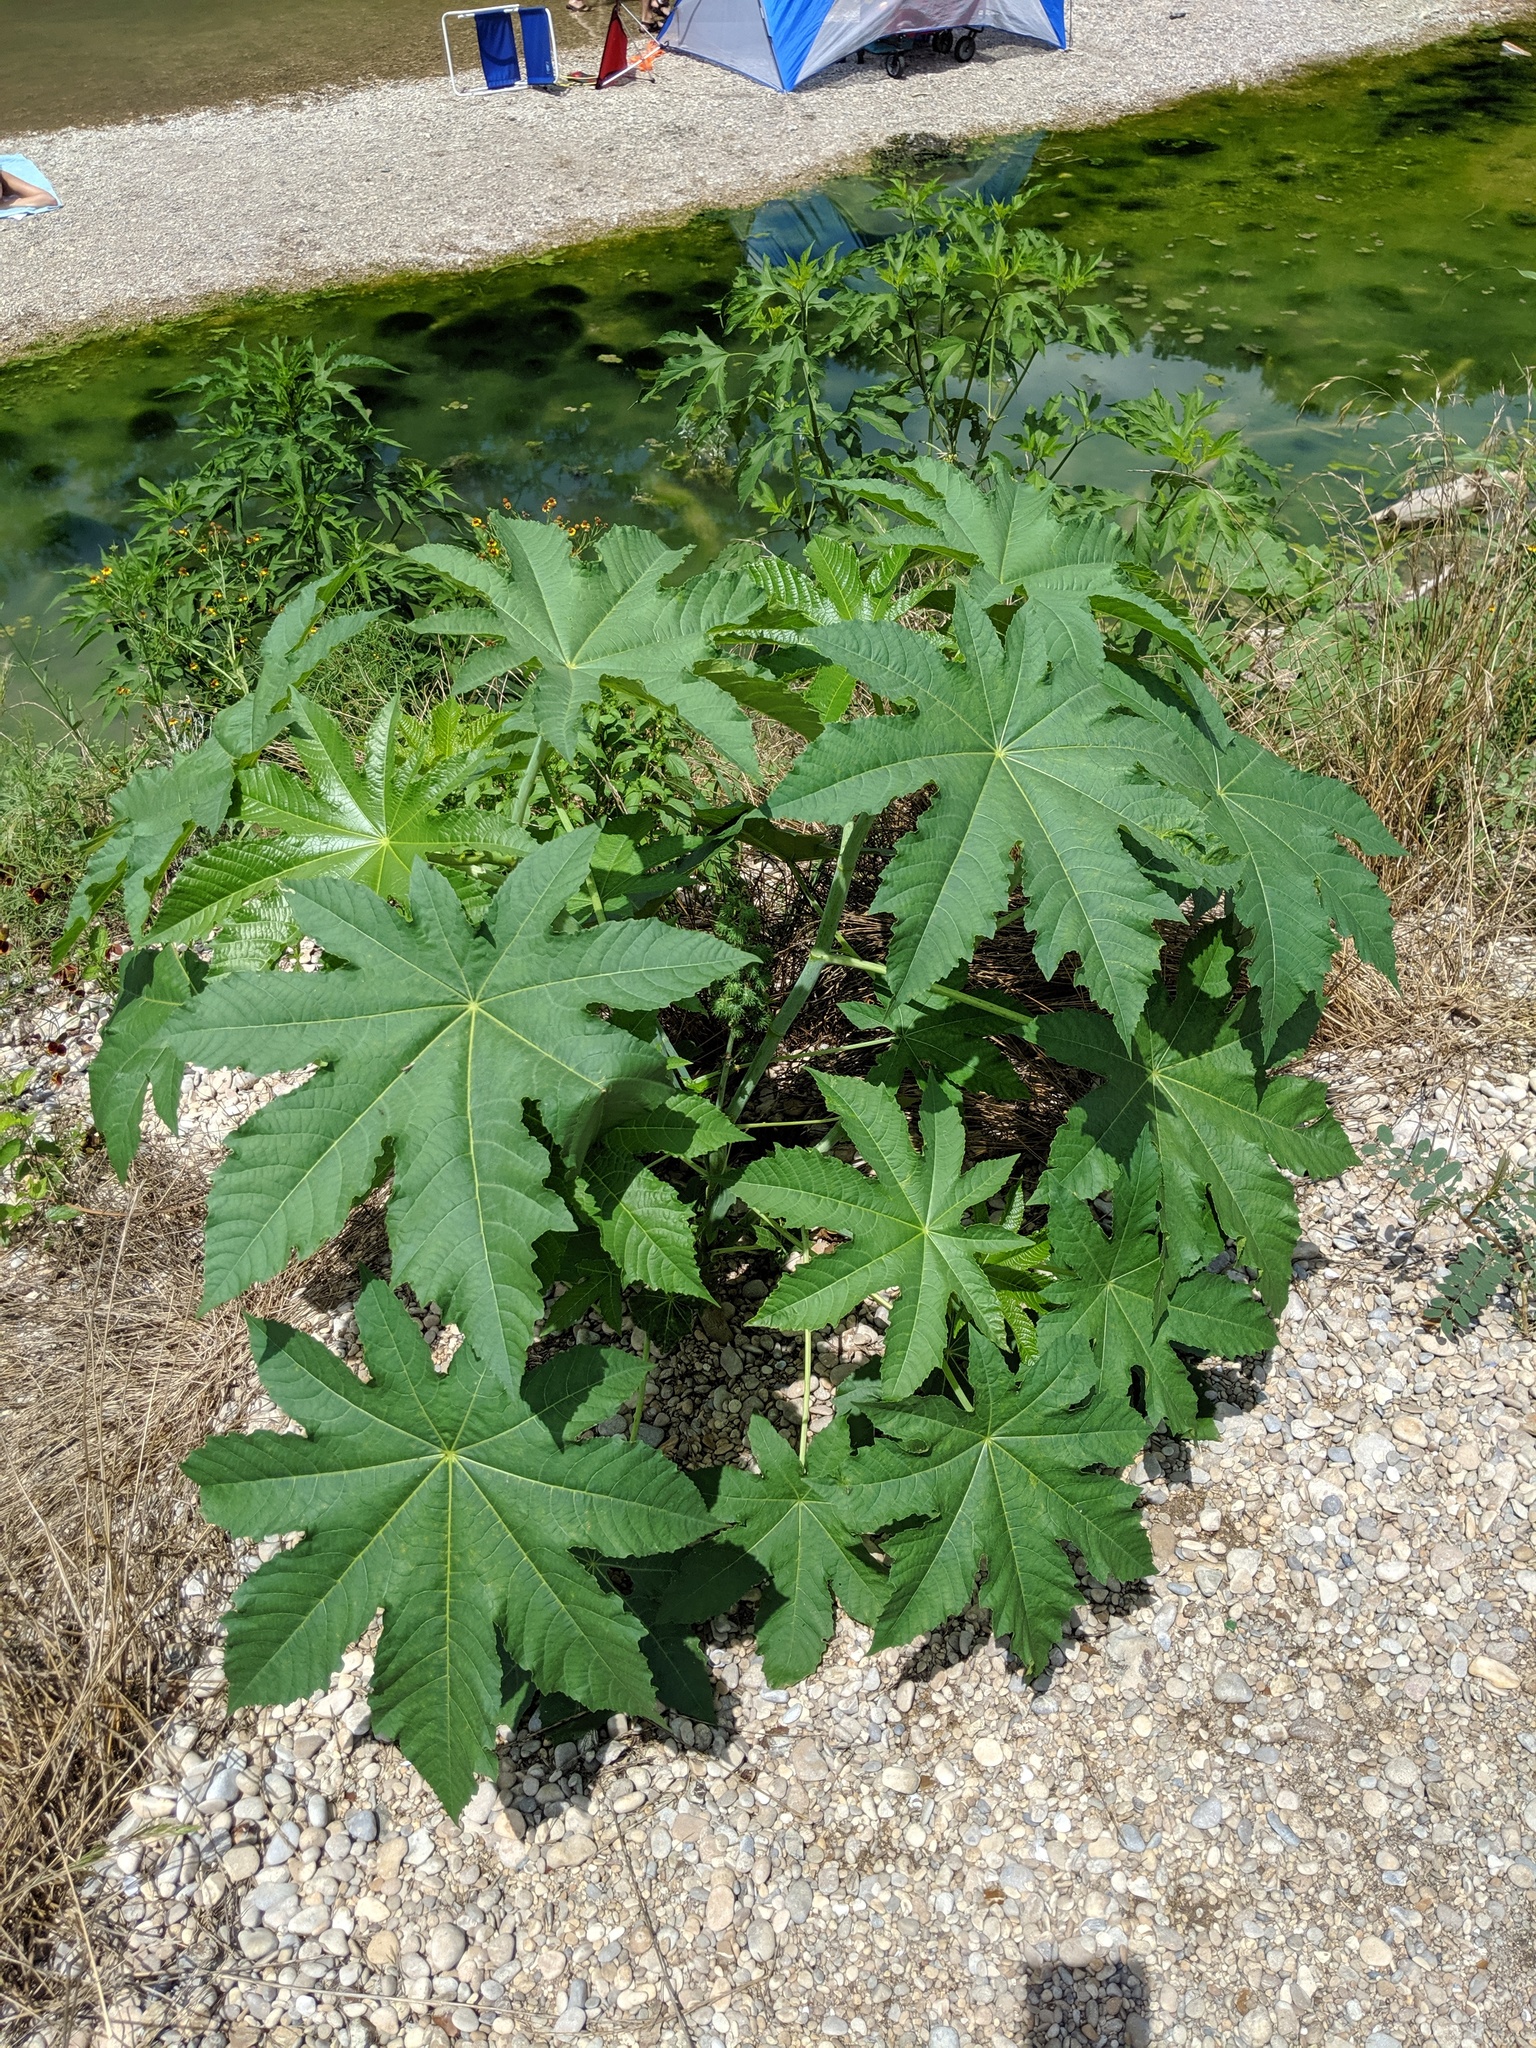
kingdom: Plantae
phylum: Tracheophyta
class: Magnoliopsida
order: Malpighiales
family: Euphorbiaceae
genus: Ricinus
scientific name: Ricinus communis
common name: Castor-oil-plant
